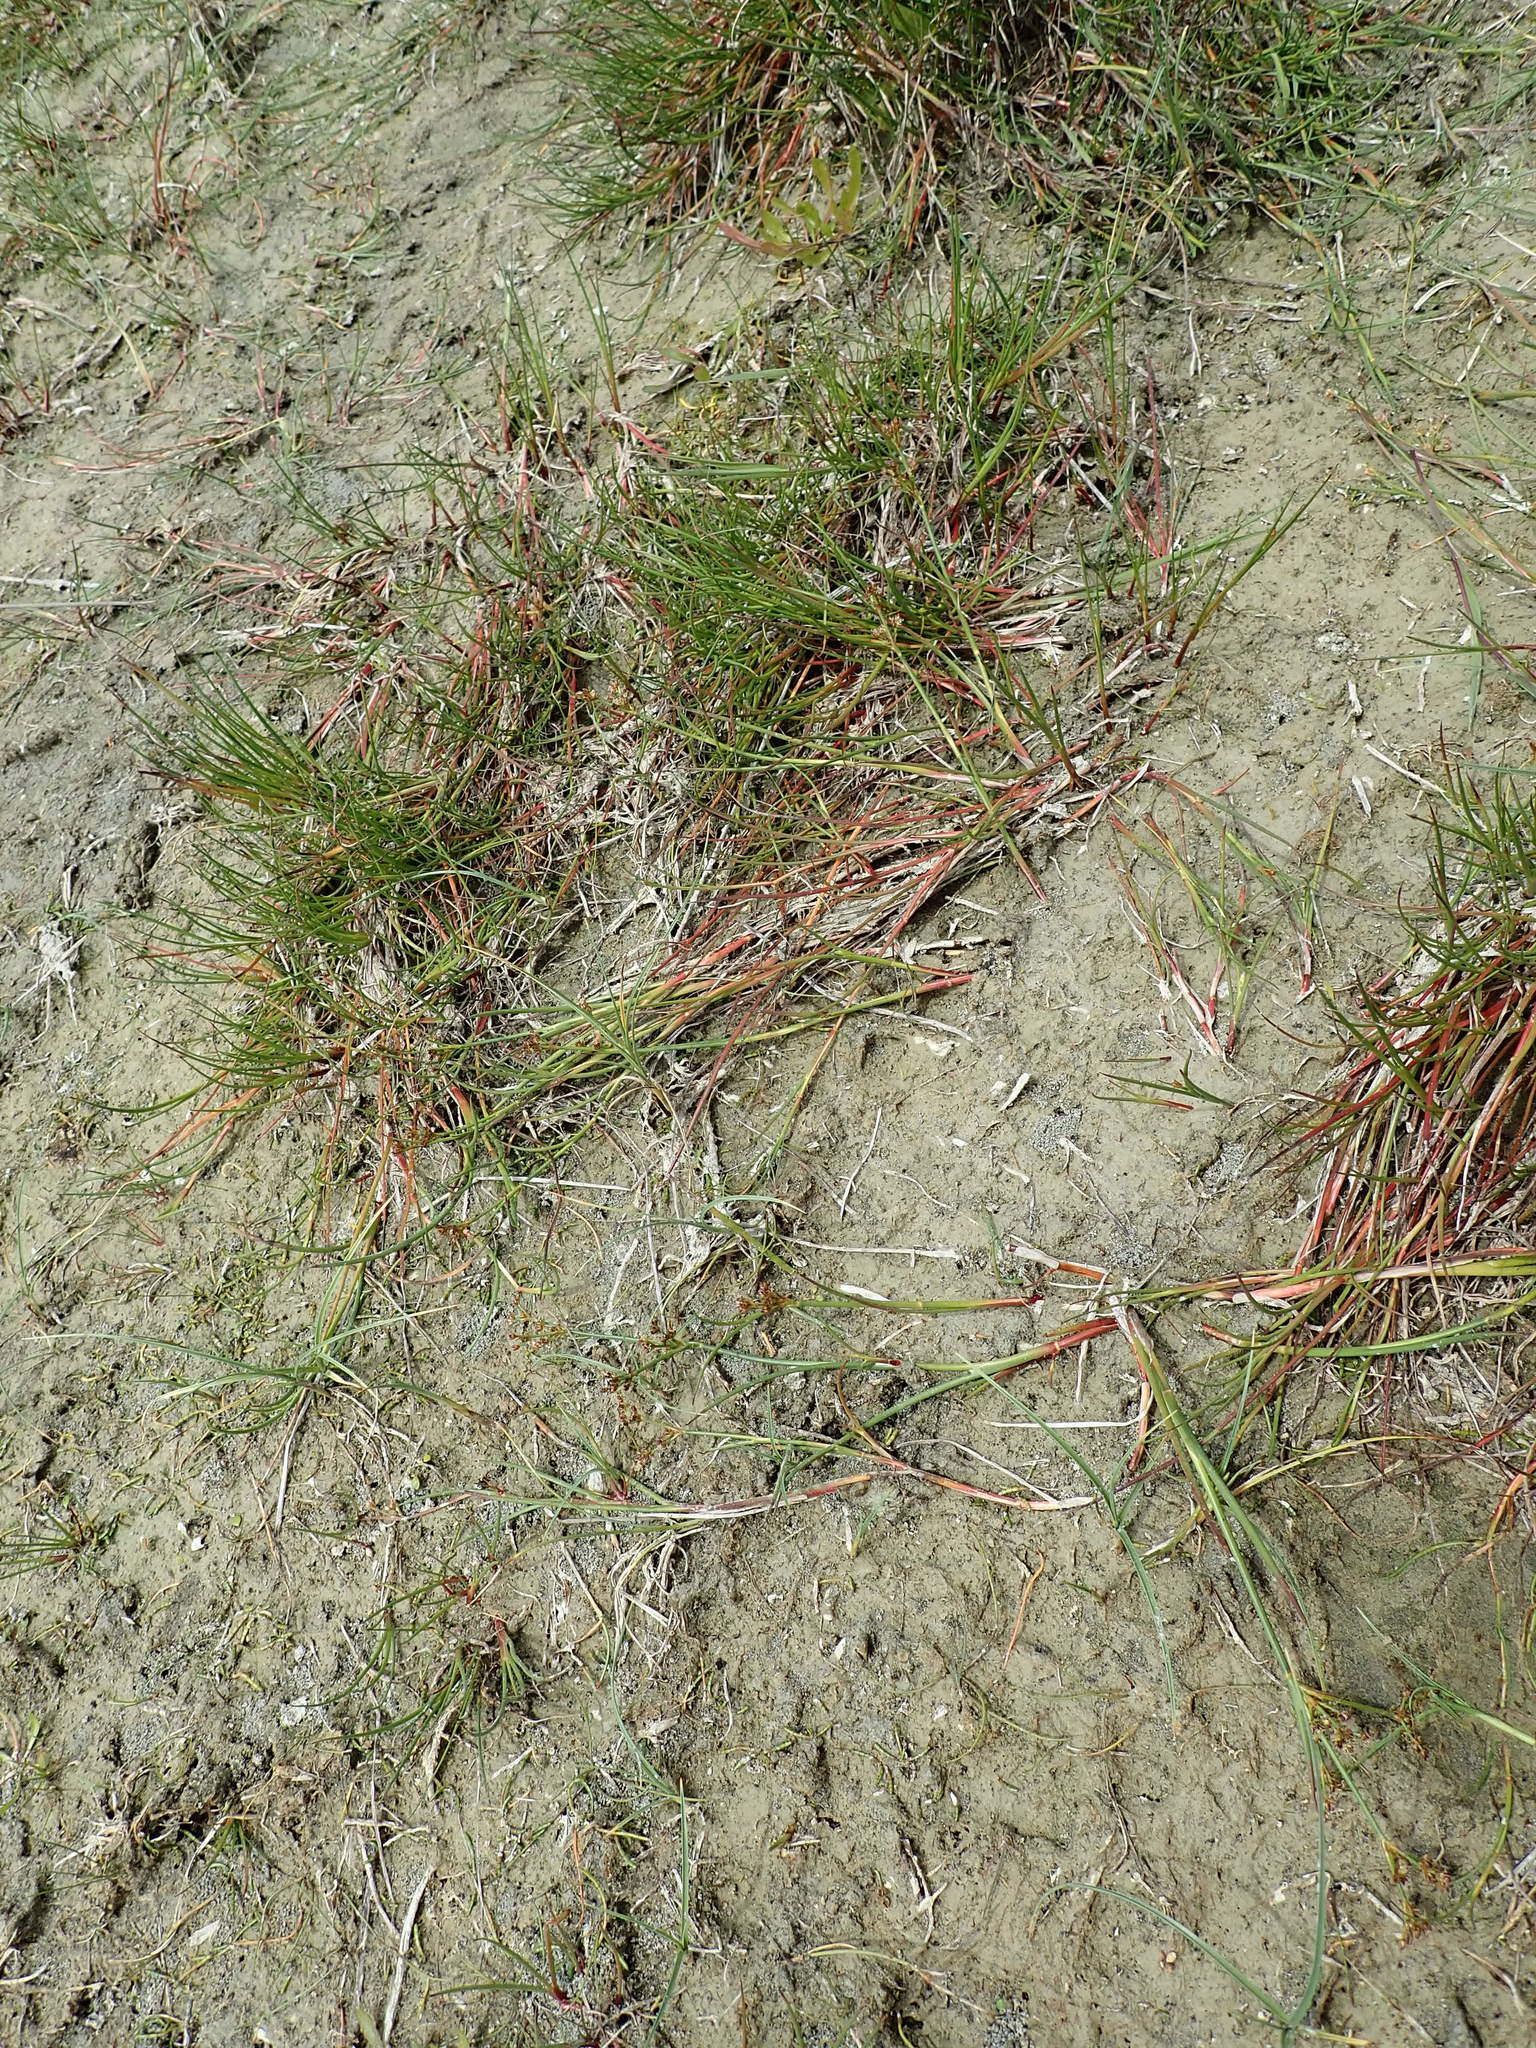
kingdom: Plantae
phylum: Tracheophyta
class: Liliopsida
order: Poales
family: Juncaceae
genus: Juncus
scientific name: Juncus articulatus
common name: Jointed rush
